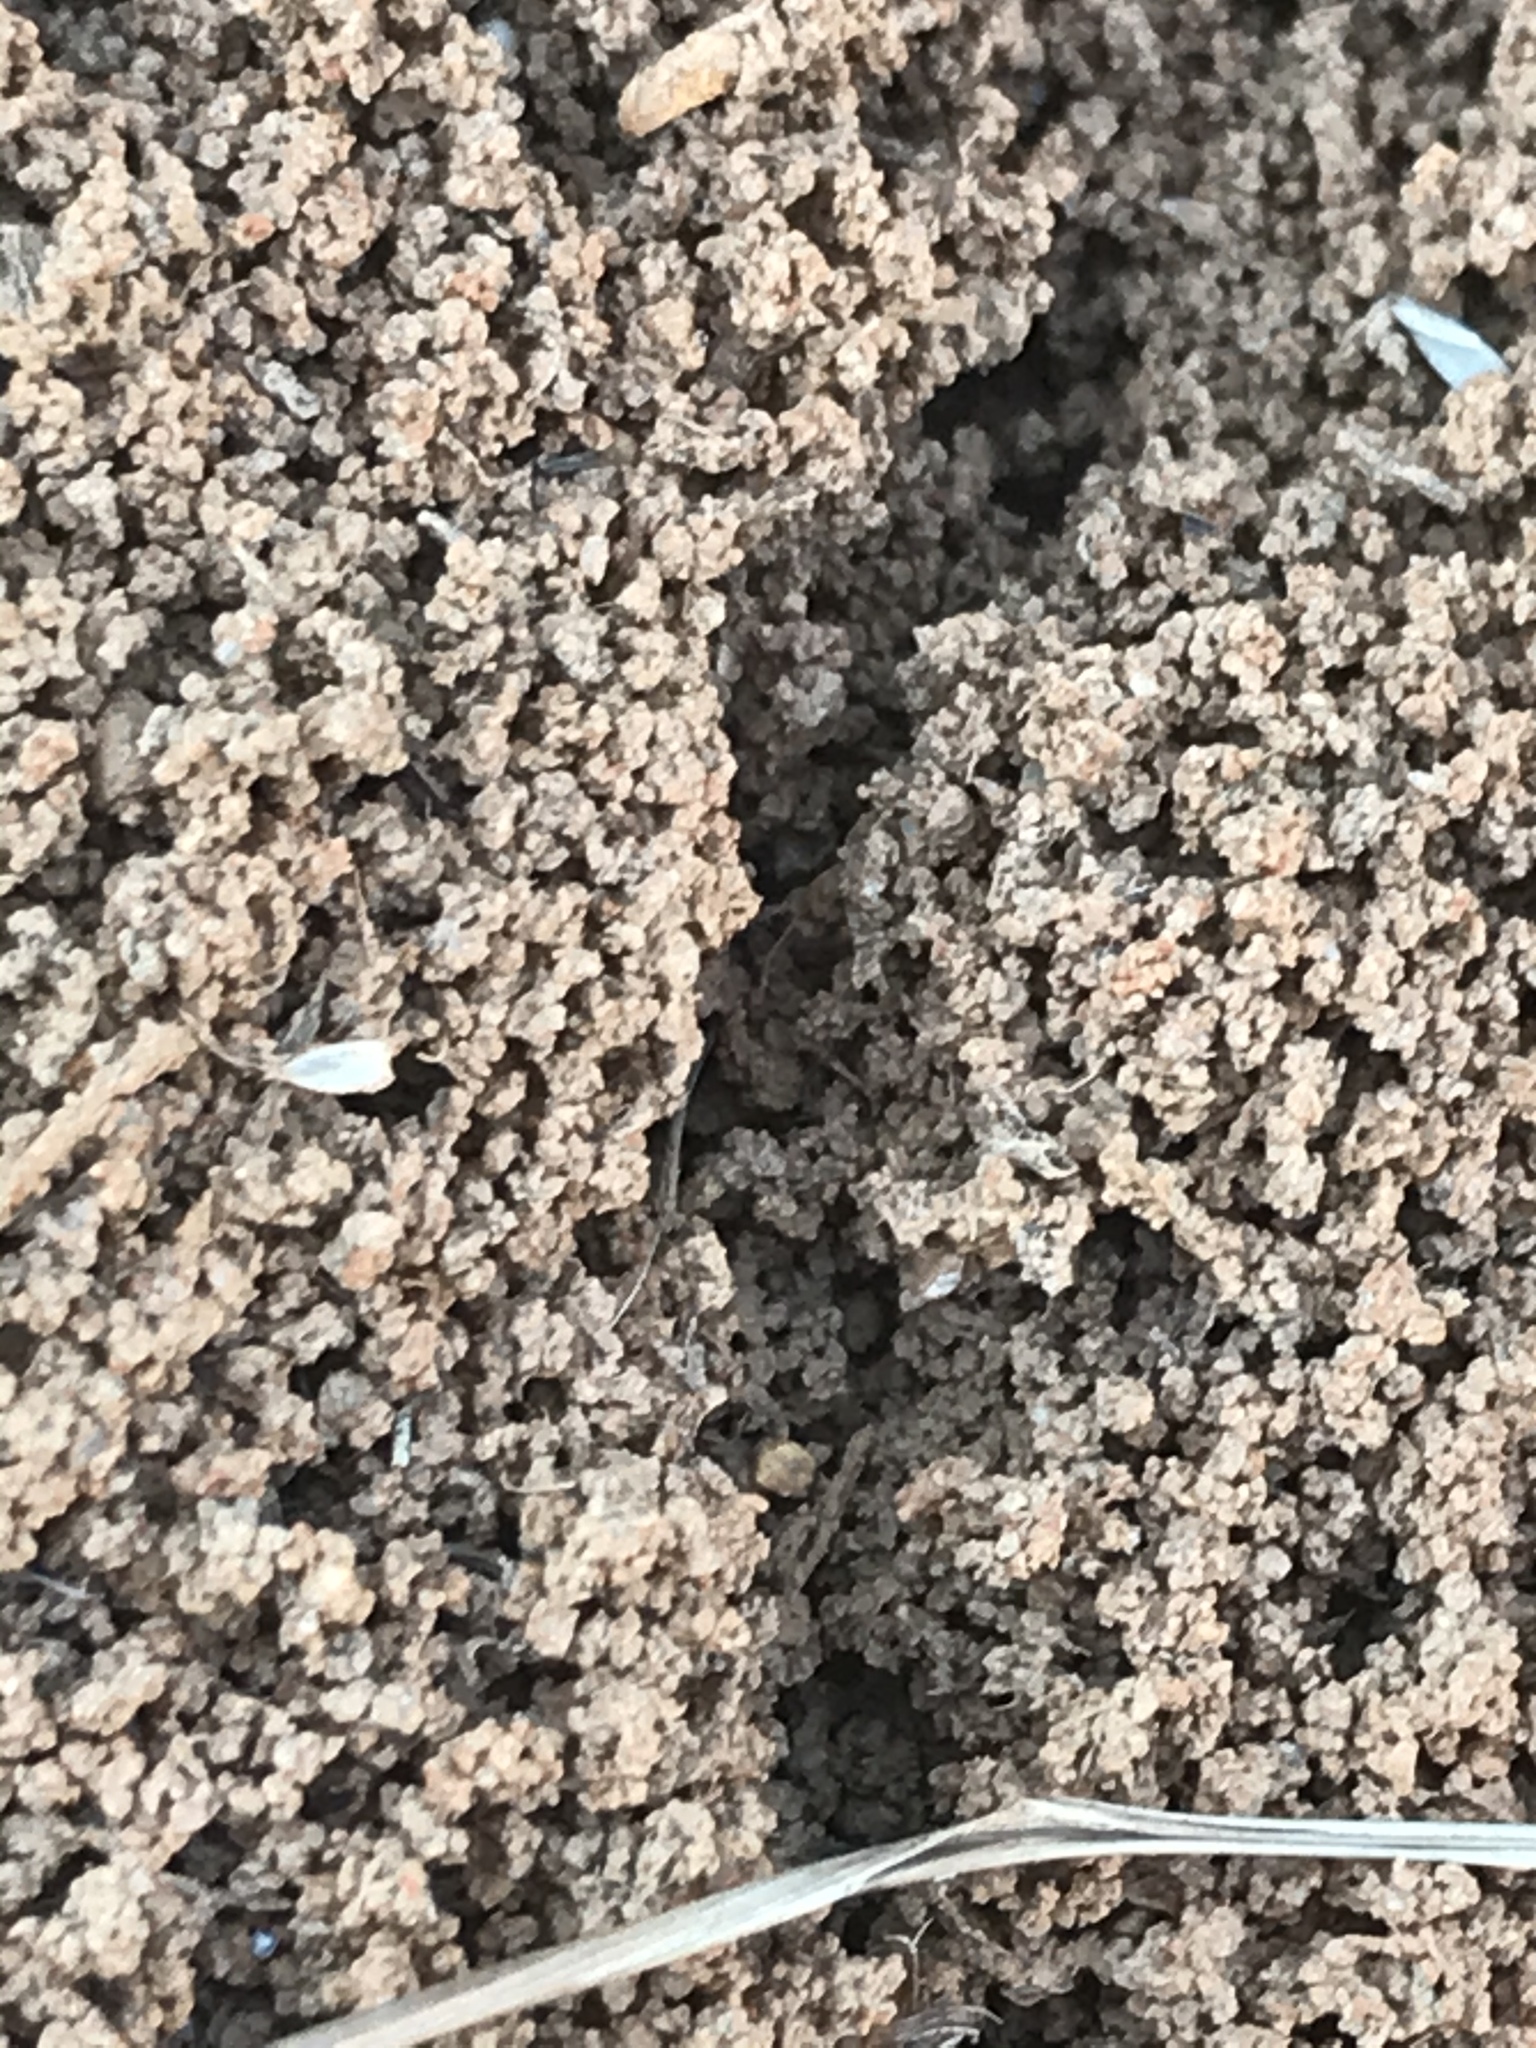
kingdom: Animalia
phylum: Arthropoda
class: Insecta
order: Hymenoptera
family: Formicidae
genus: Solenopsis
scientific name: Solenopsis
